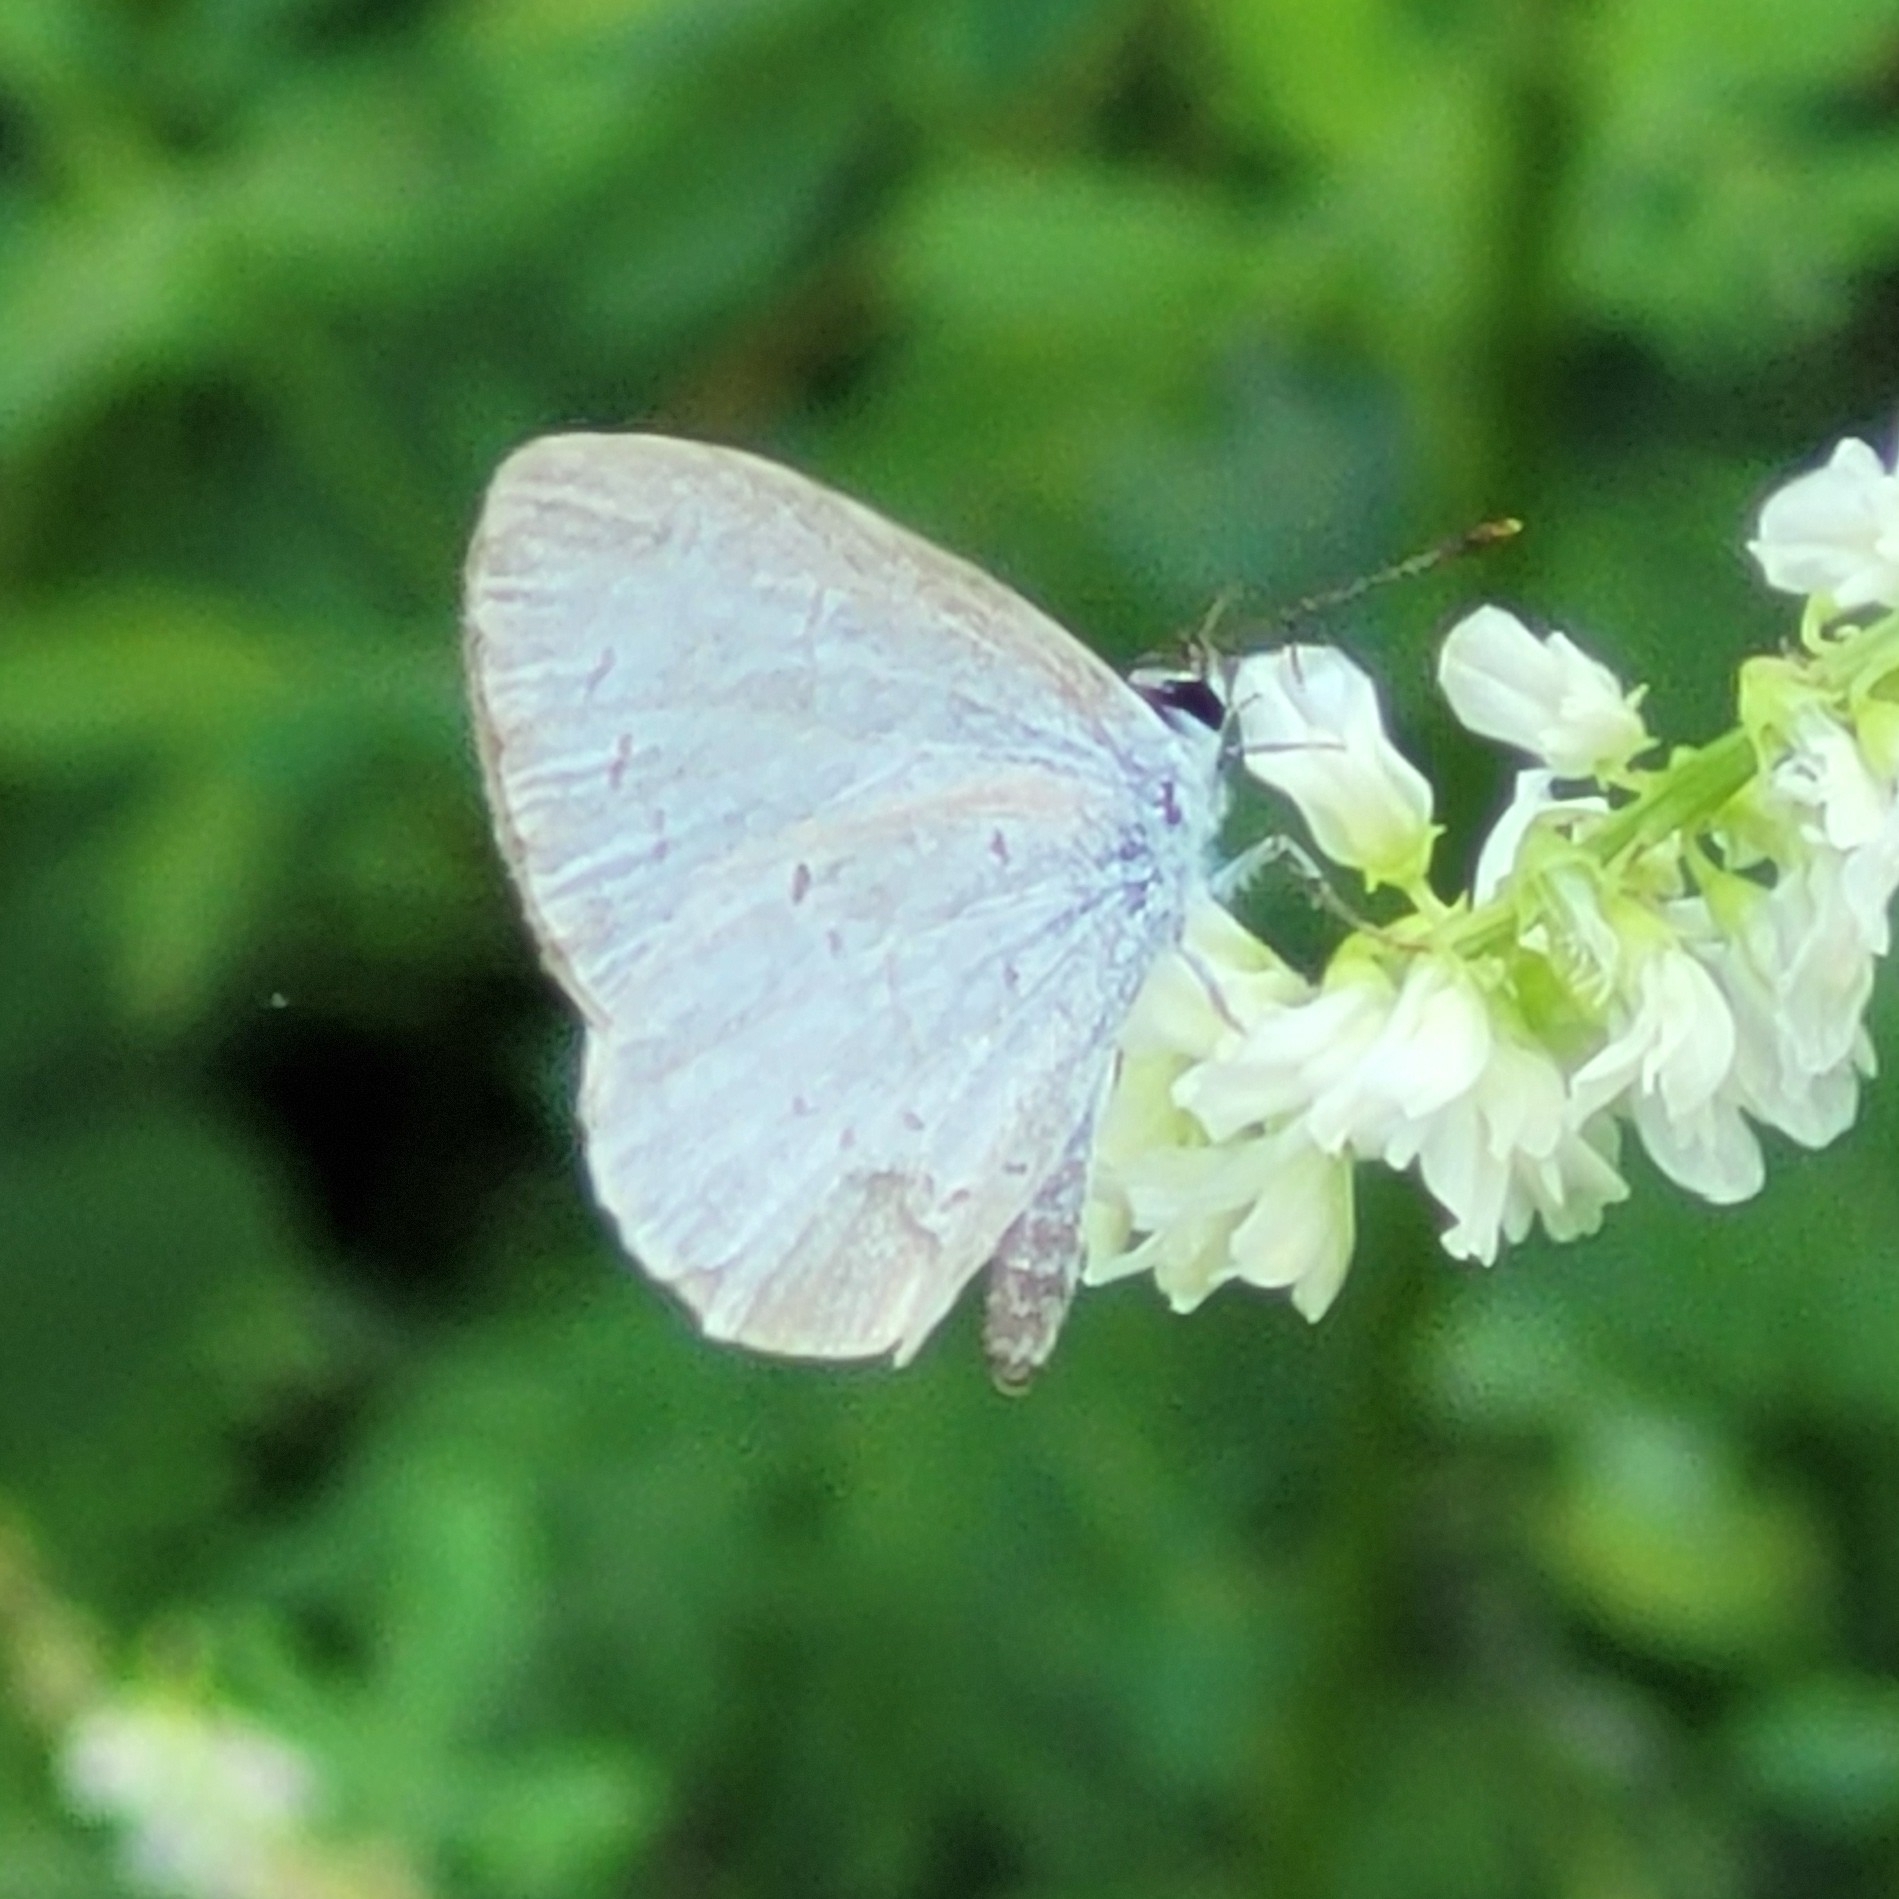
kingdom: Animalia
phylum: Arthropoda
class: Insecta
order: Lepidoptera
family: Lycaenidae
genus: Cyaniris
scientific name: Cyaniris neglecta
